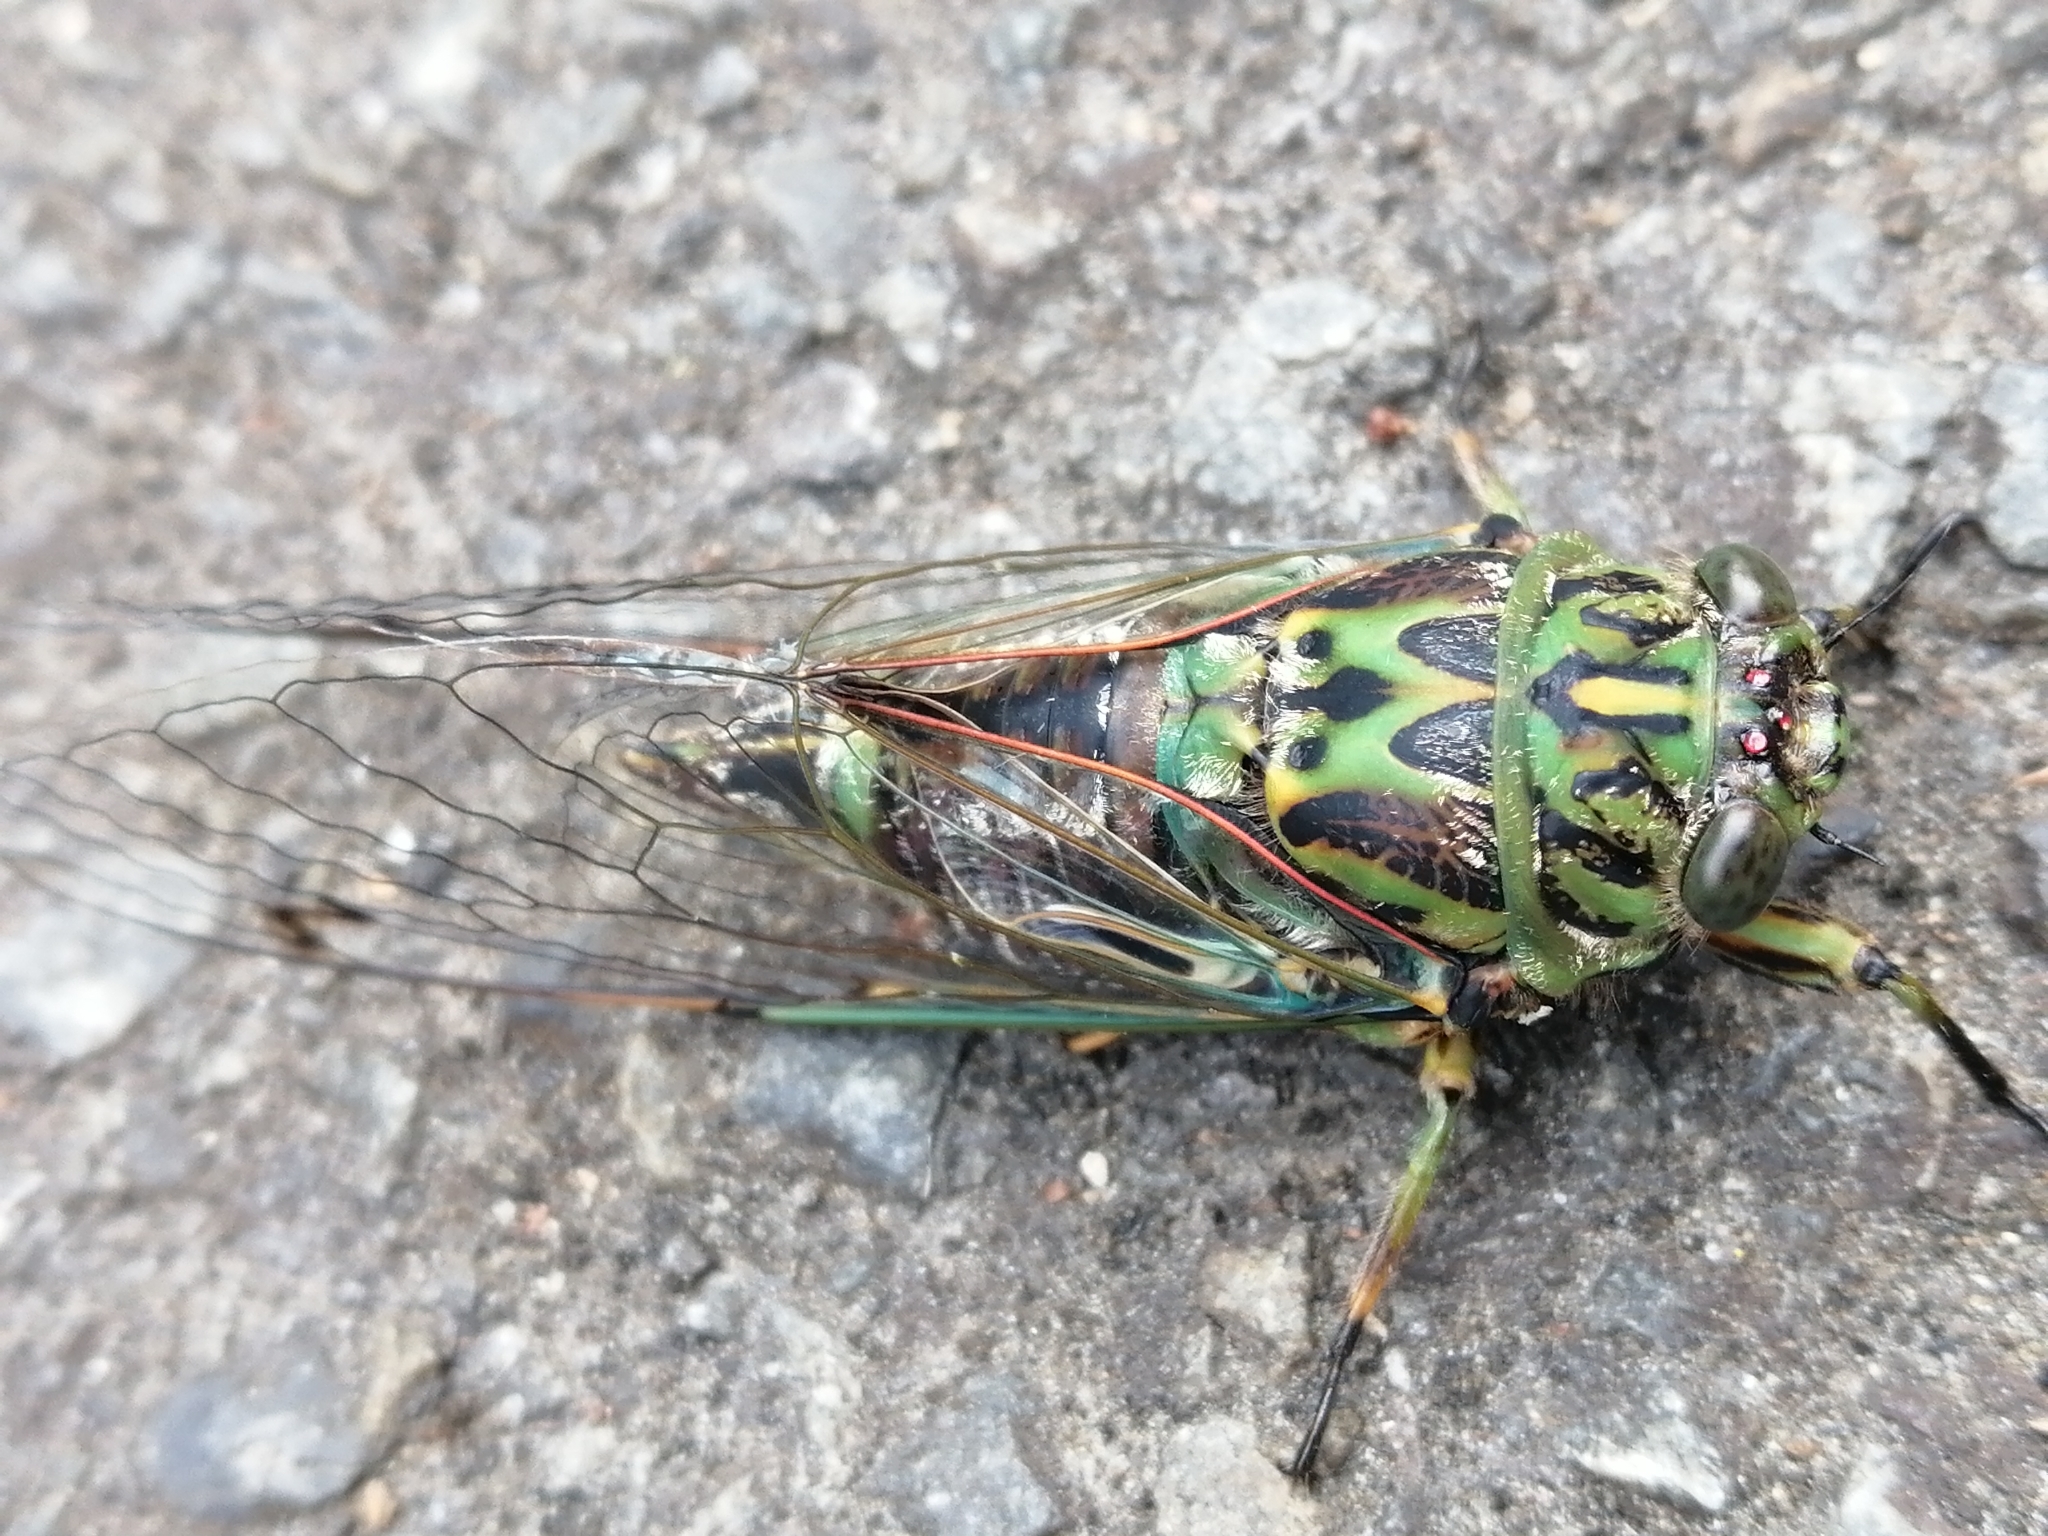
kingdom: Animalia
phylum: Arthropoda
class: Insecta
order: Hemiptera
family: Cicadidae
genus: Amphipsalta
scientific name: Amphipsalta zelandica
